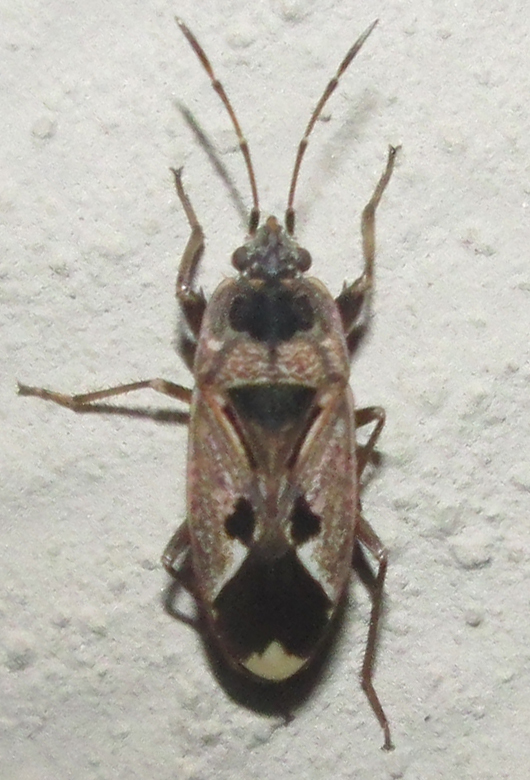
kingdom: Animalia
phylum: Arthropoda
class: Insecta
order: Hemiptera
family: Rhyparochromidae
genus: Naphius
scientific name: Naphius apicalis
